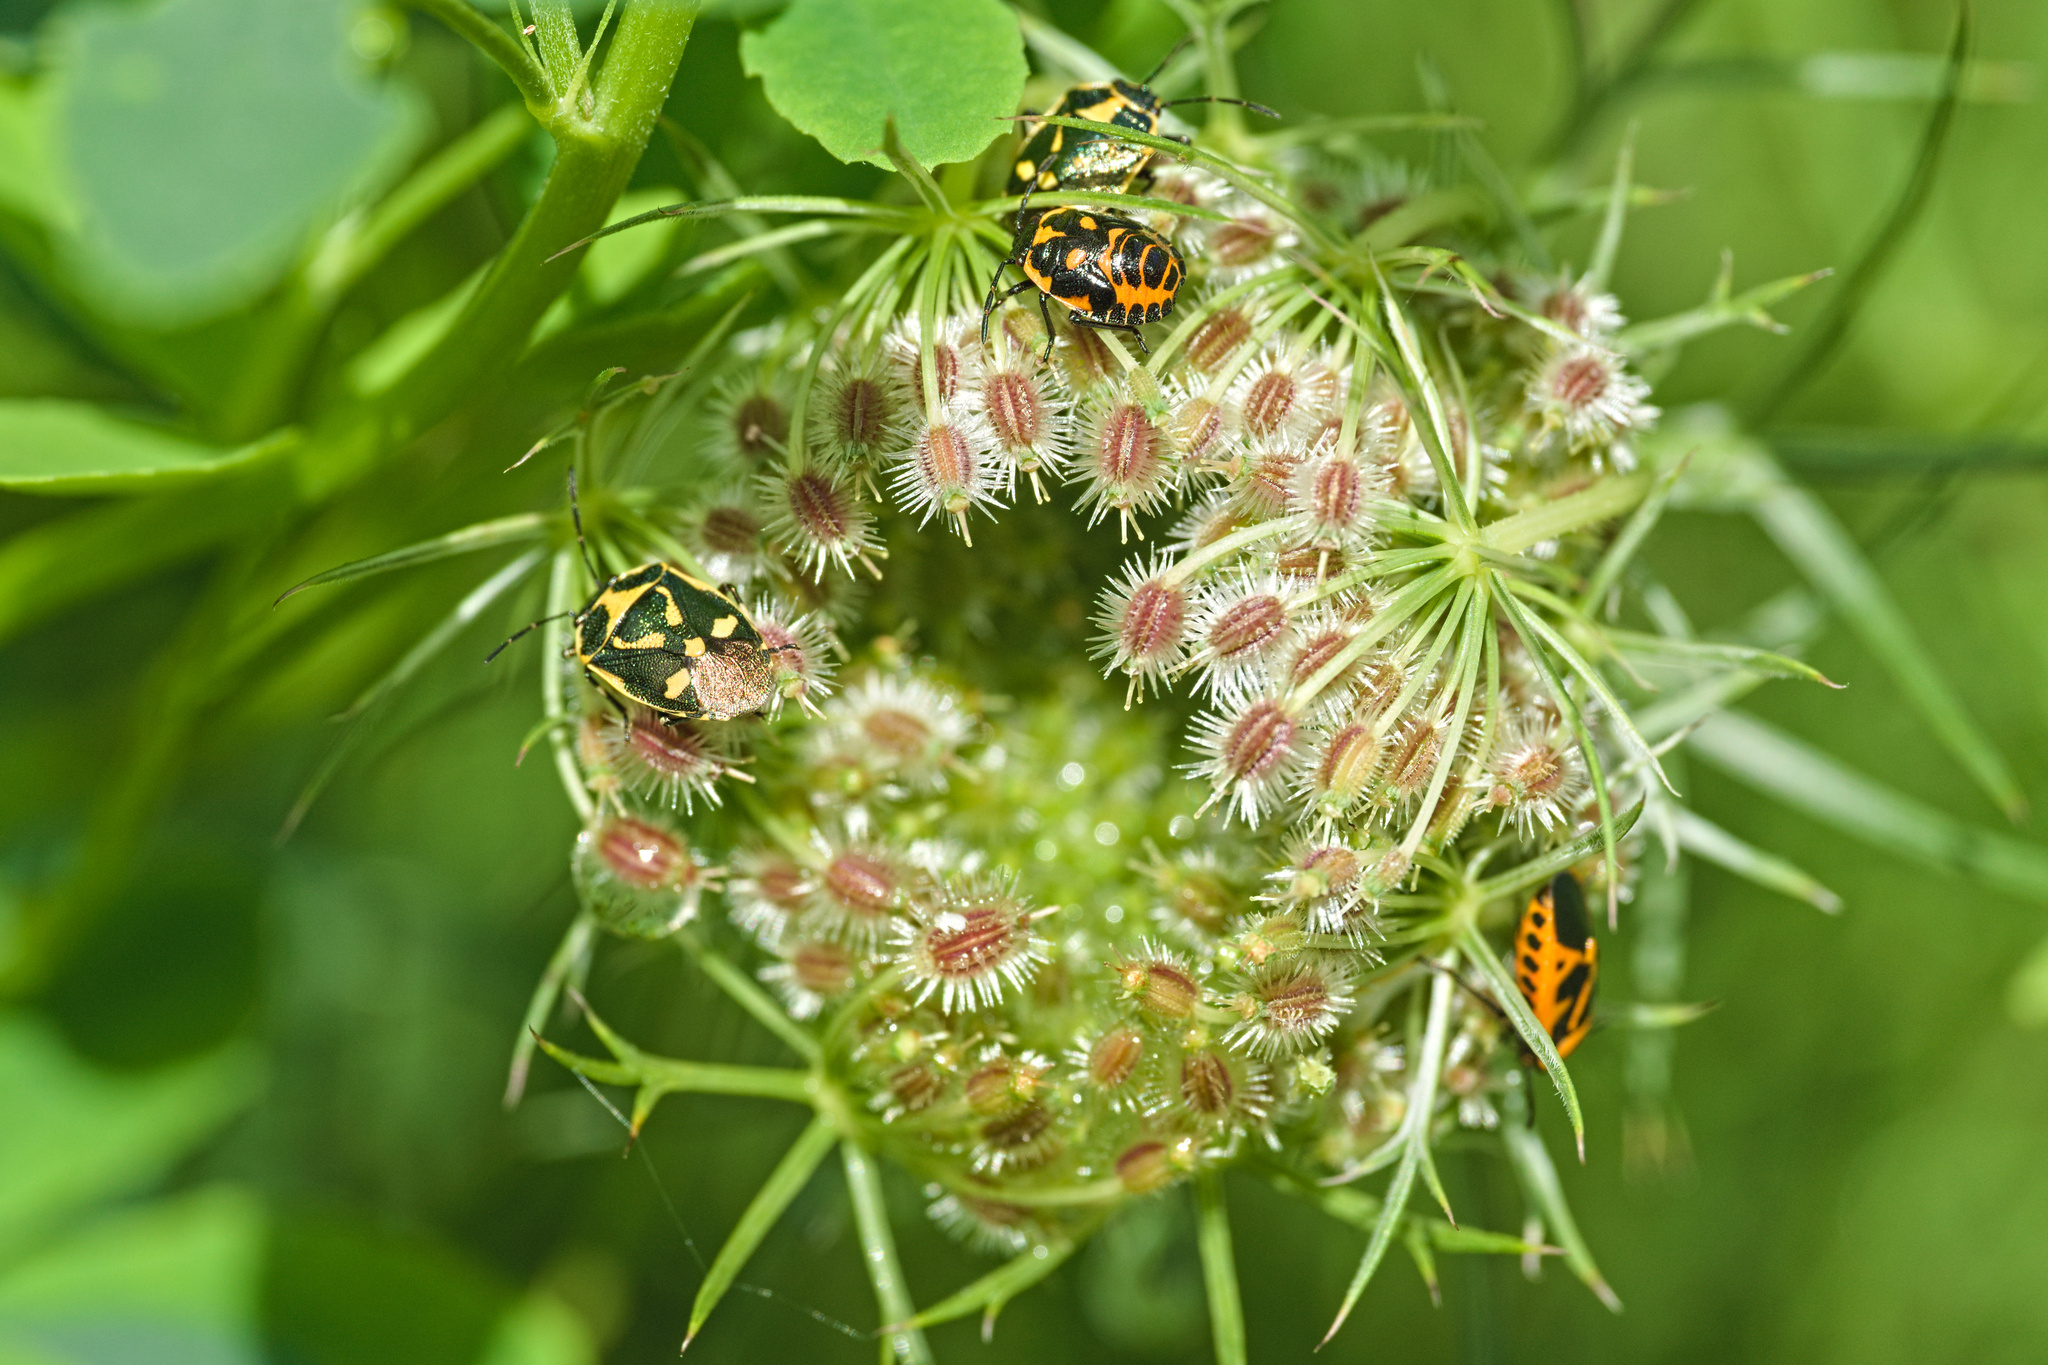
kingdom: Animalia
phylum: Arthropoda
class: Insecta
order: Hemiptera
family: Pentatomidae
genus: Eurydema
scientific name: Eurydema dominulus
